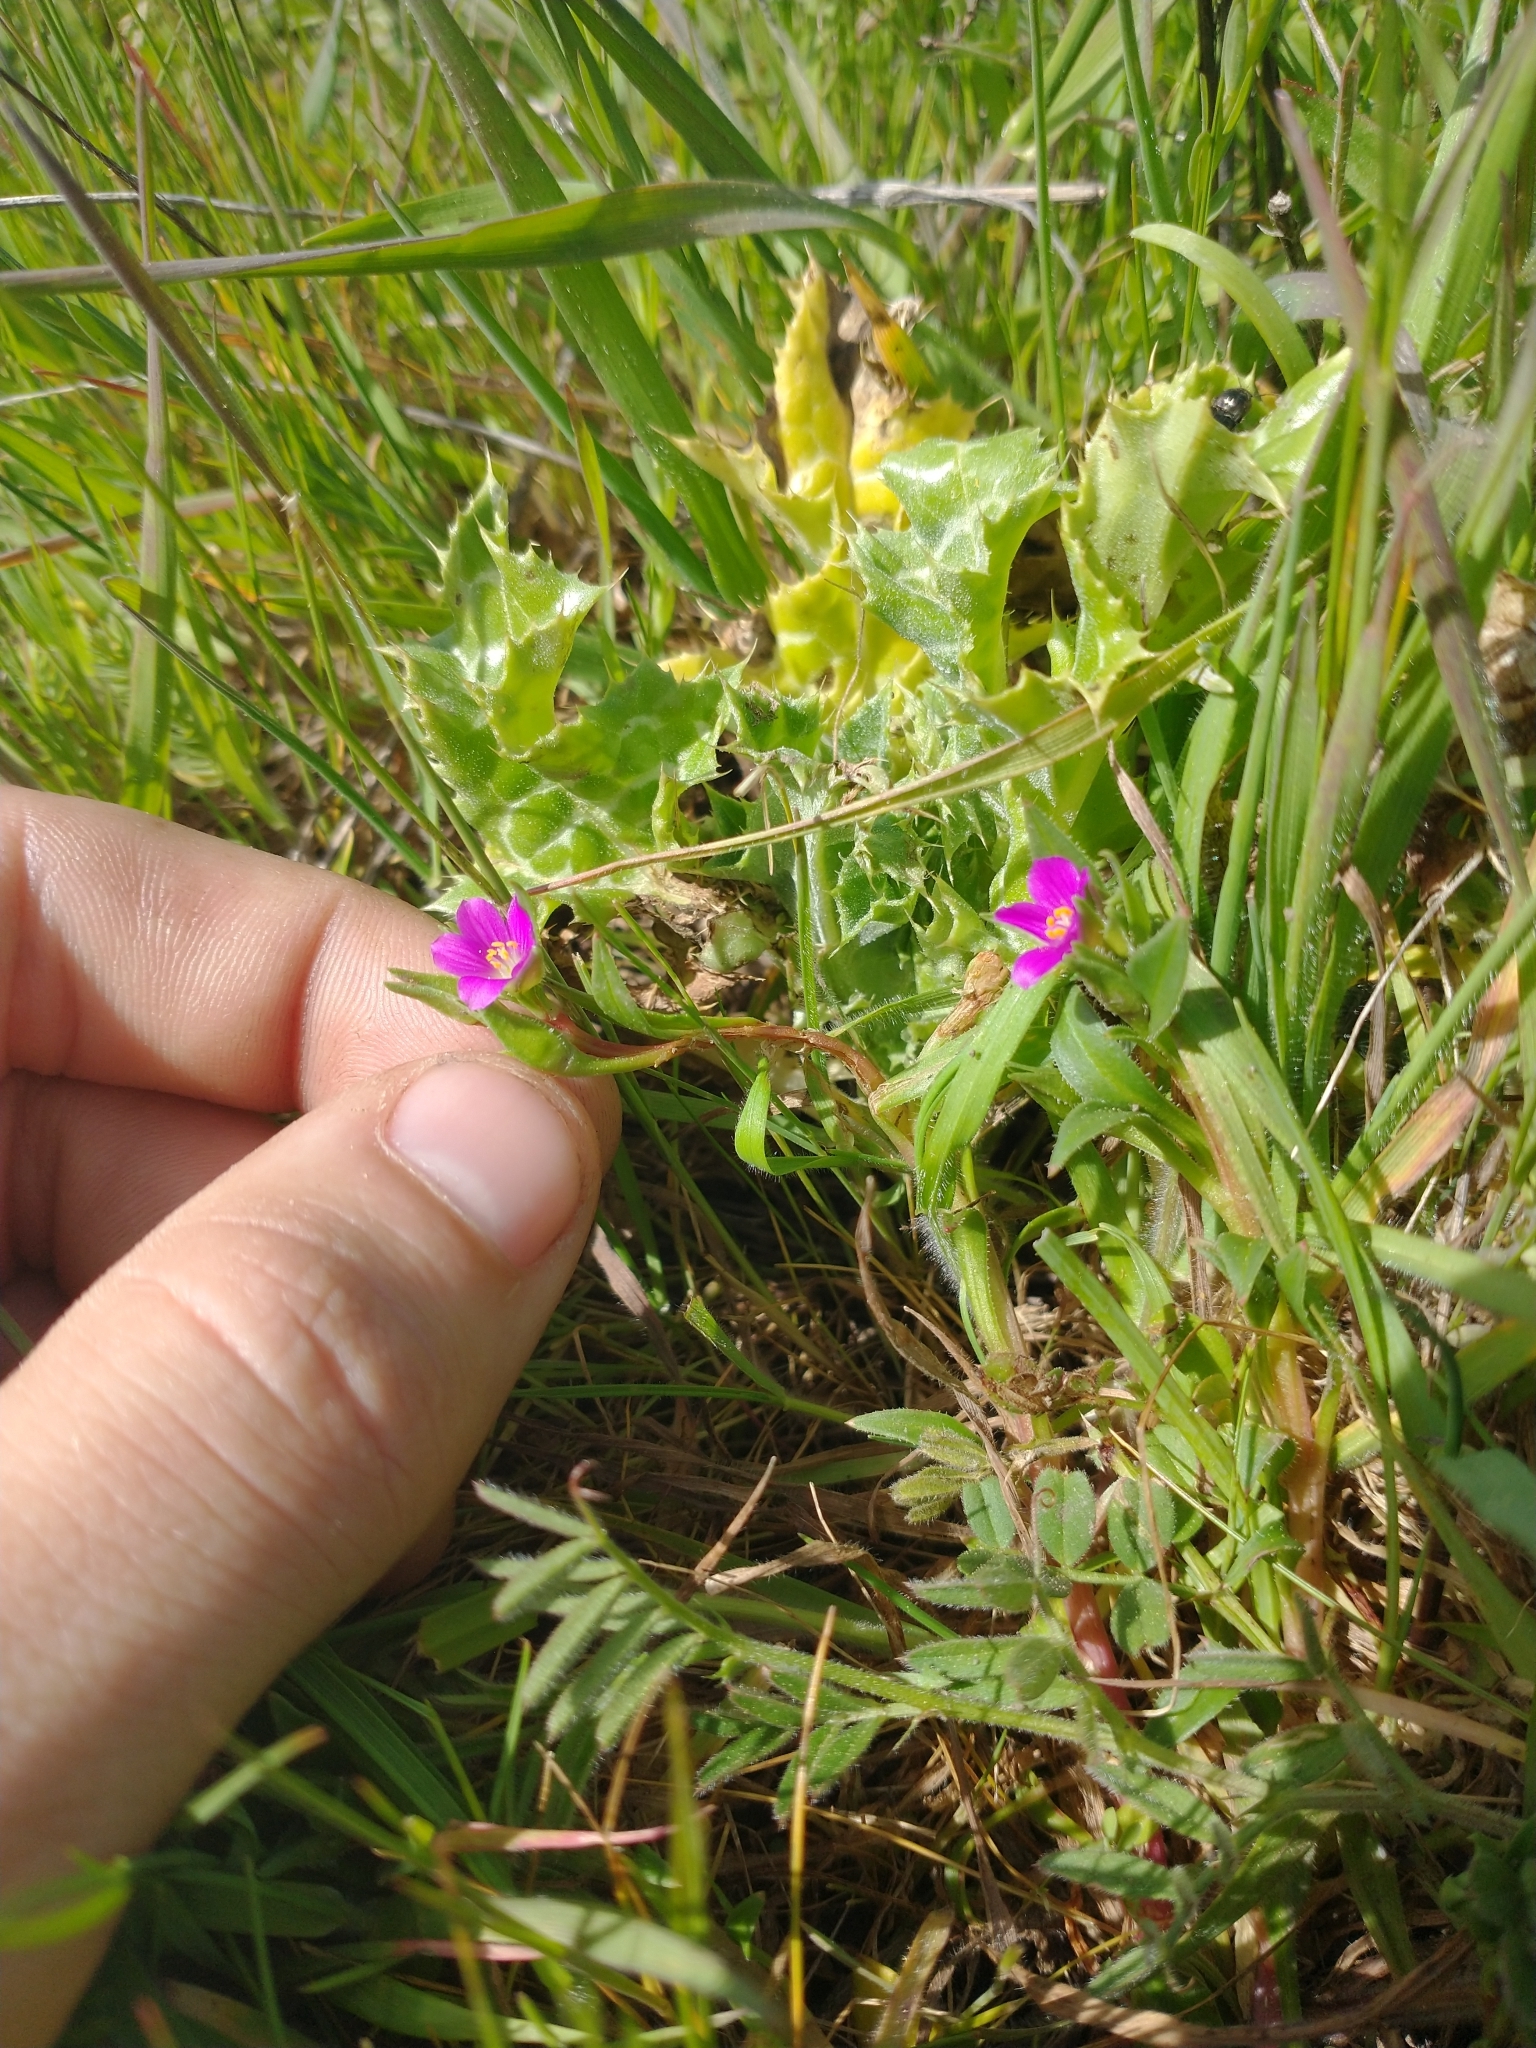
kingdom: Plantae
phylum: Tracheophyta
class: Magnoliopsida
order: Caryophyllales
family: Montiaceae
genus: Calandrinia
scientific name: Calandrinia menziesii
